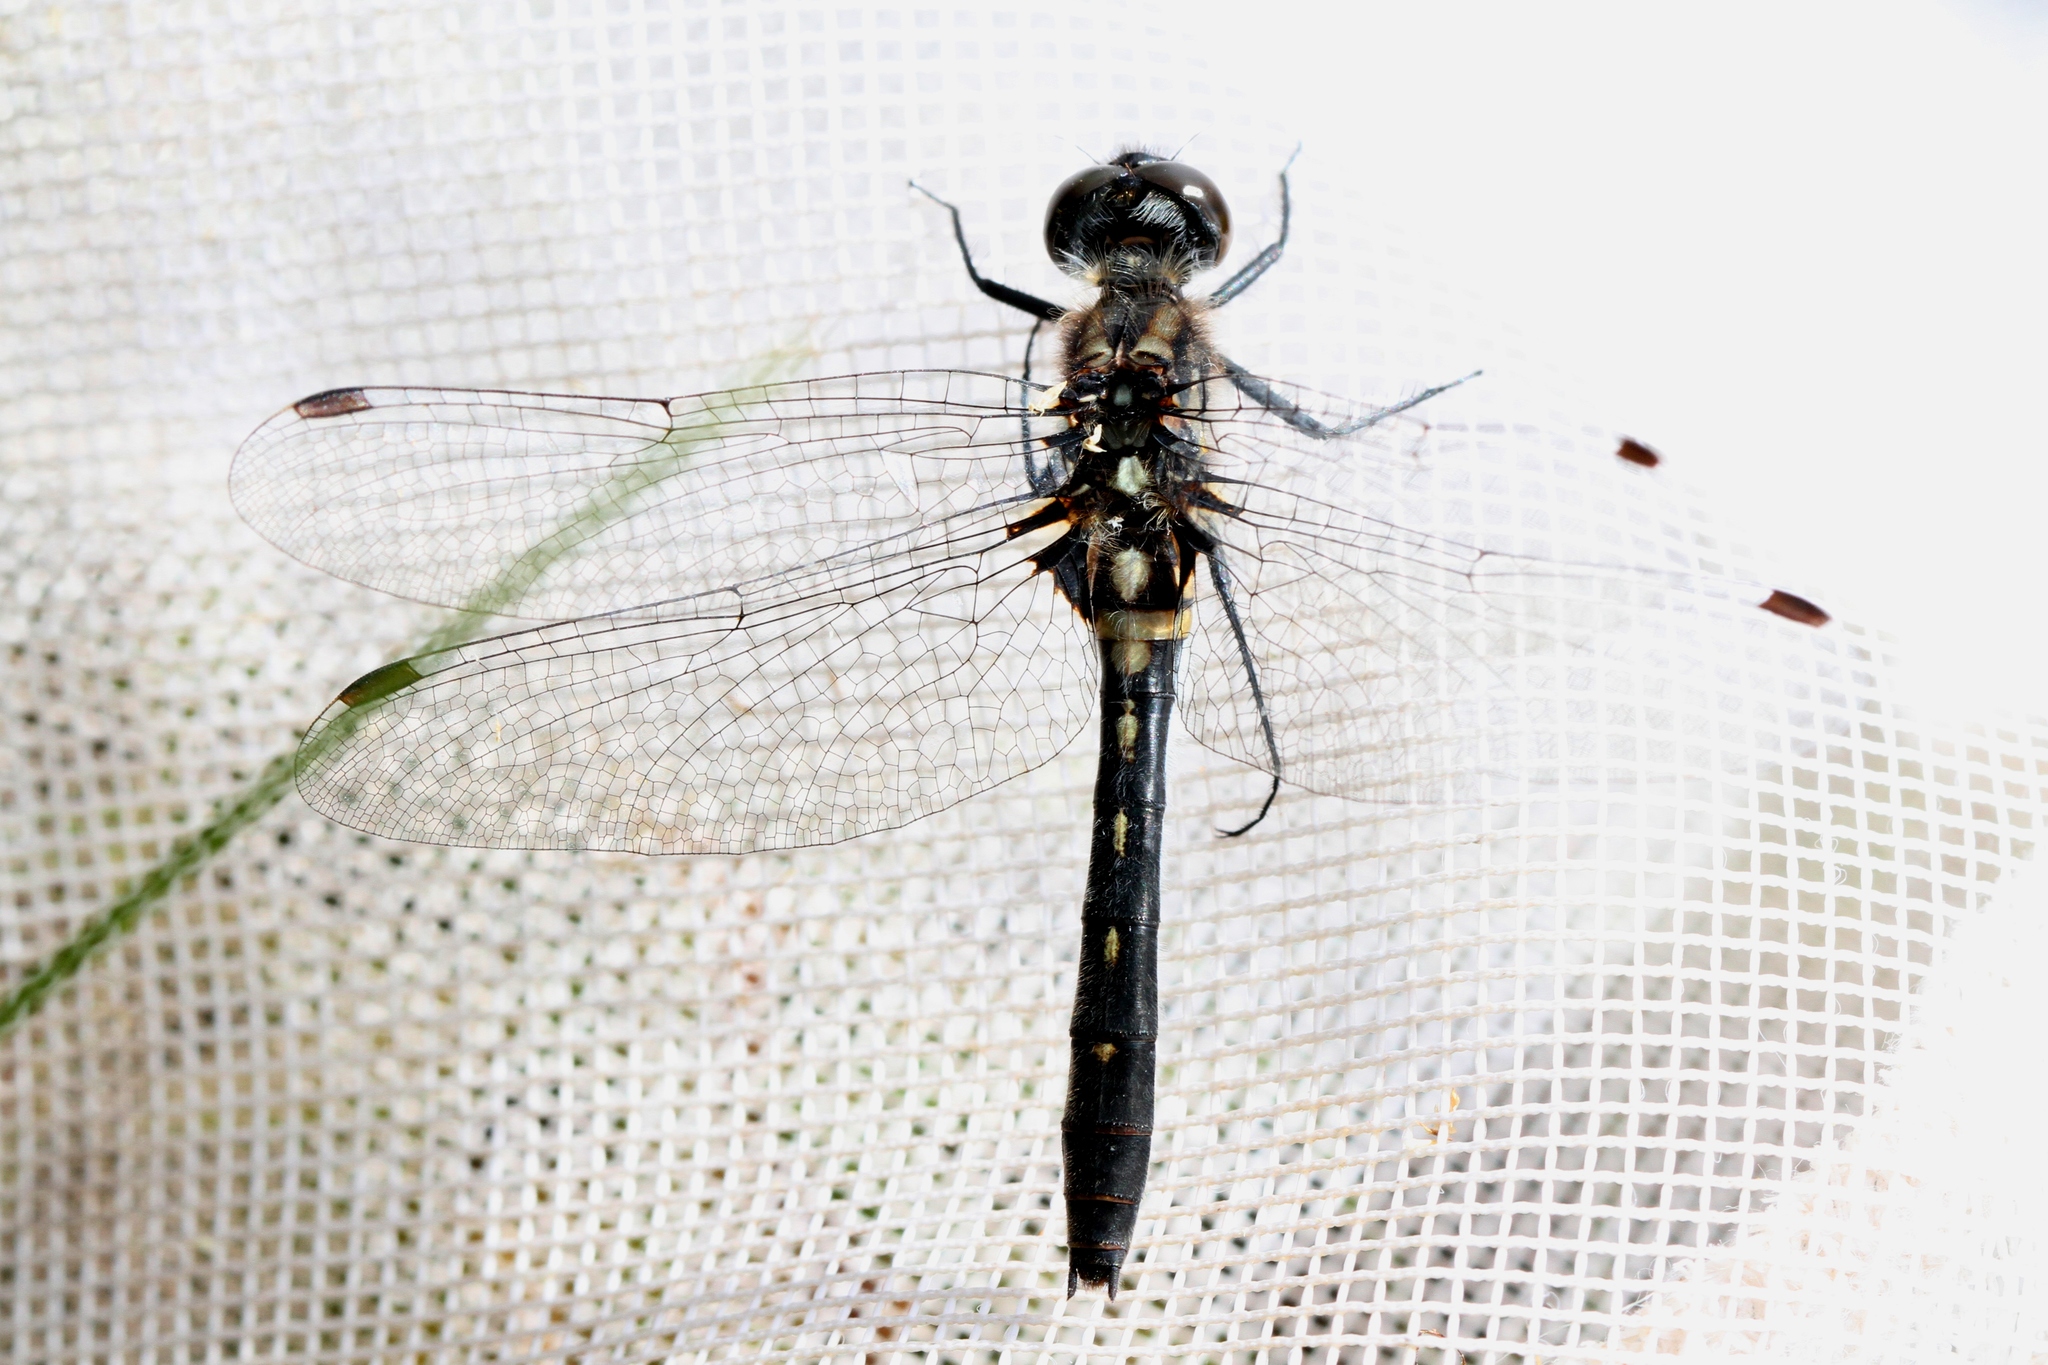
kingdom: Animalia
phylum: Arthropoda
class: Insecta
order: Odonata
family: Libellulidae
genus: Leucorrhinia
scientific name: Leucorrhinia glacialis
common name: Crimson-ringed whiteface
